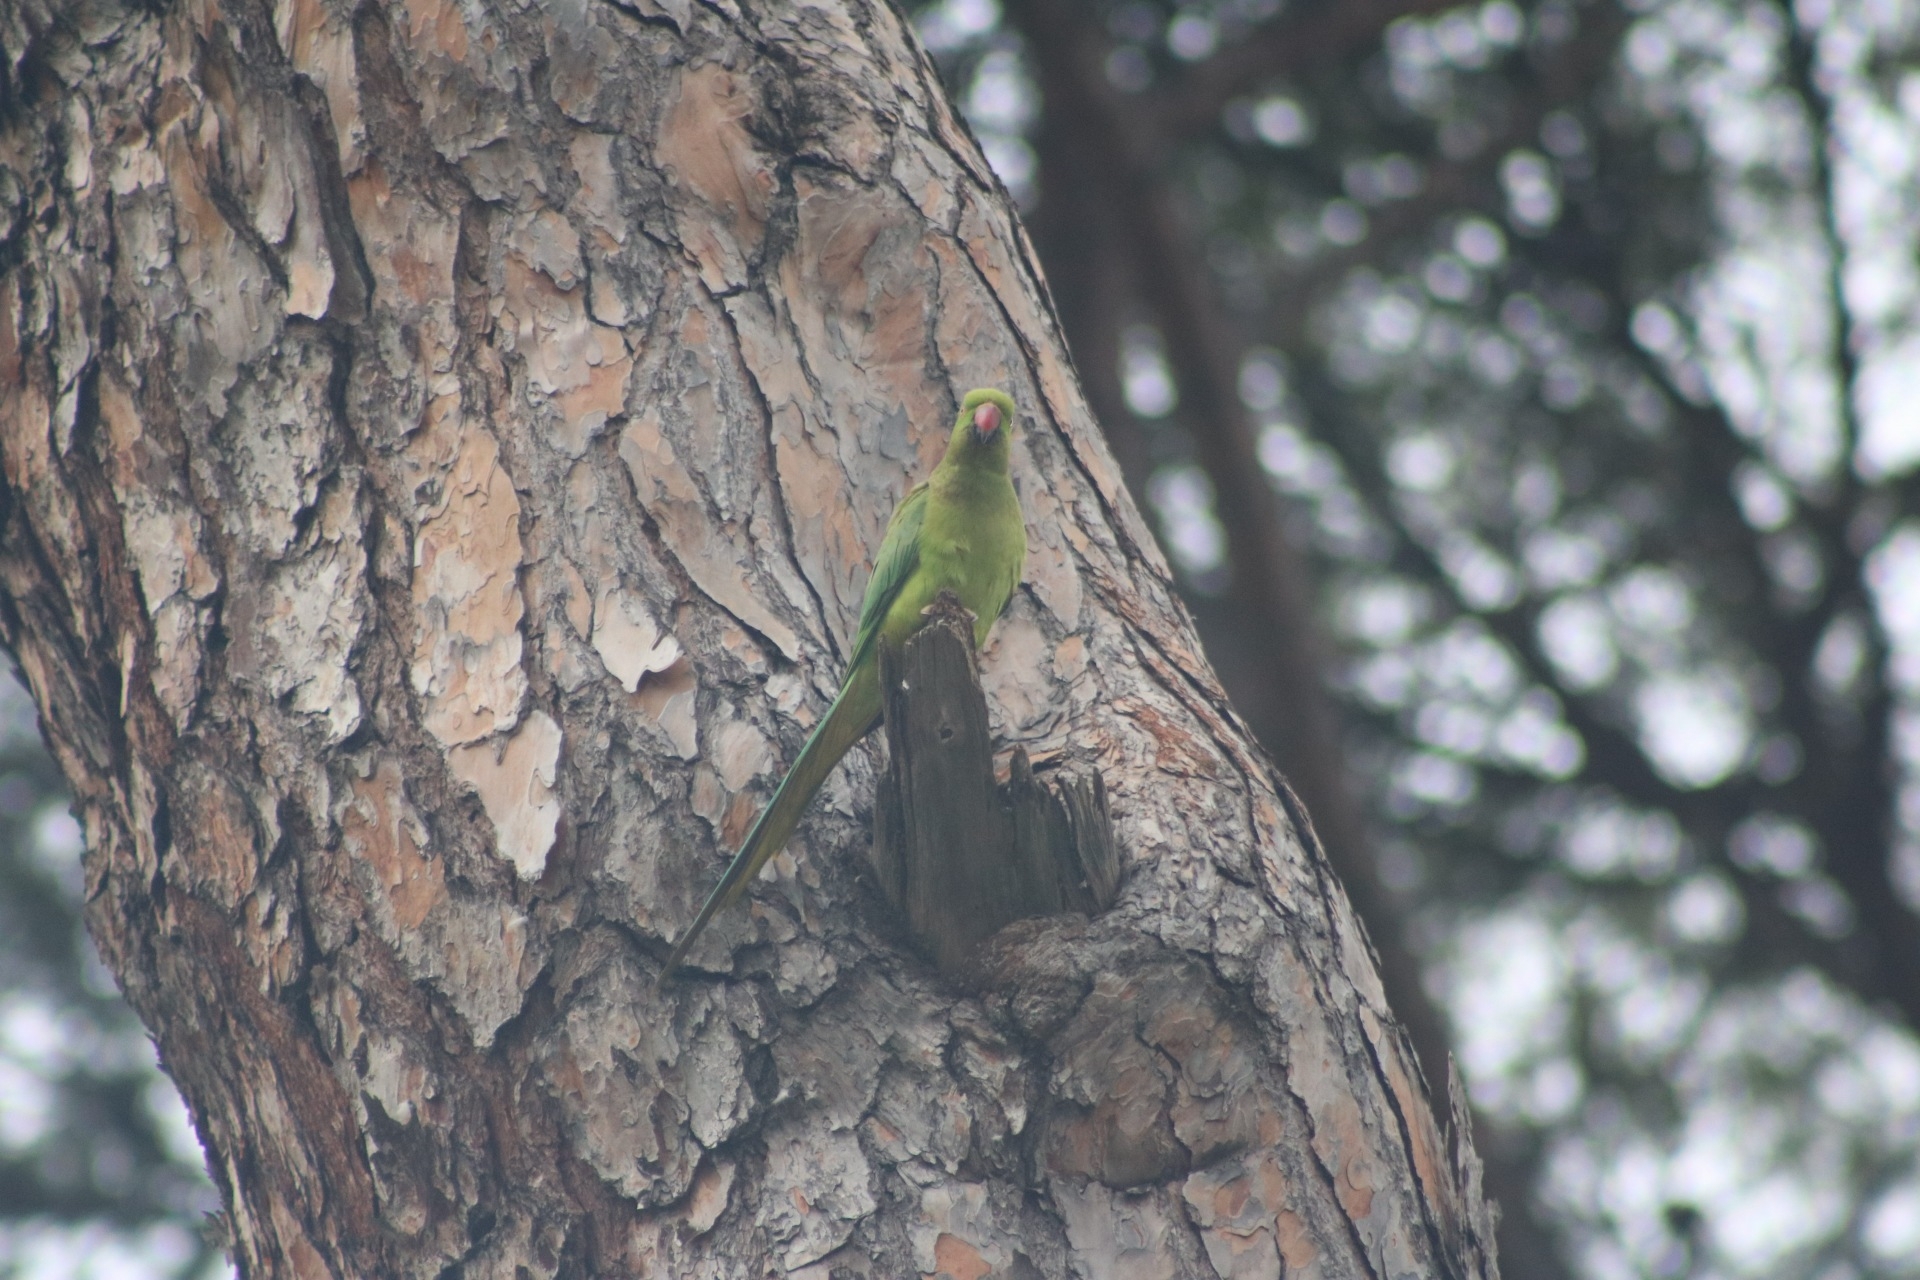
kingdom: Animalia
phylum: Chordata
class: Aves
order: Psittaciformes
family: Psittacidae
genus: Psittacula
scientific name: Psittacula krameri
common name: Rose-ringed parakeet
